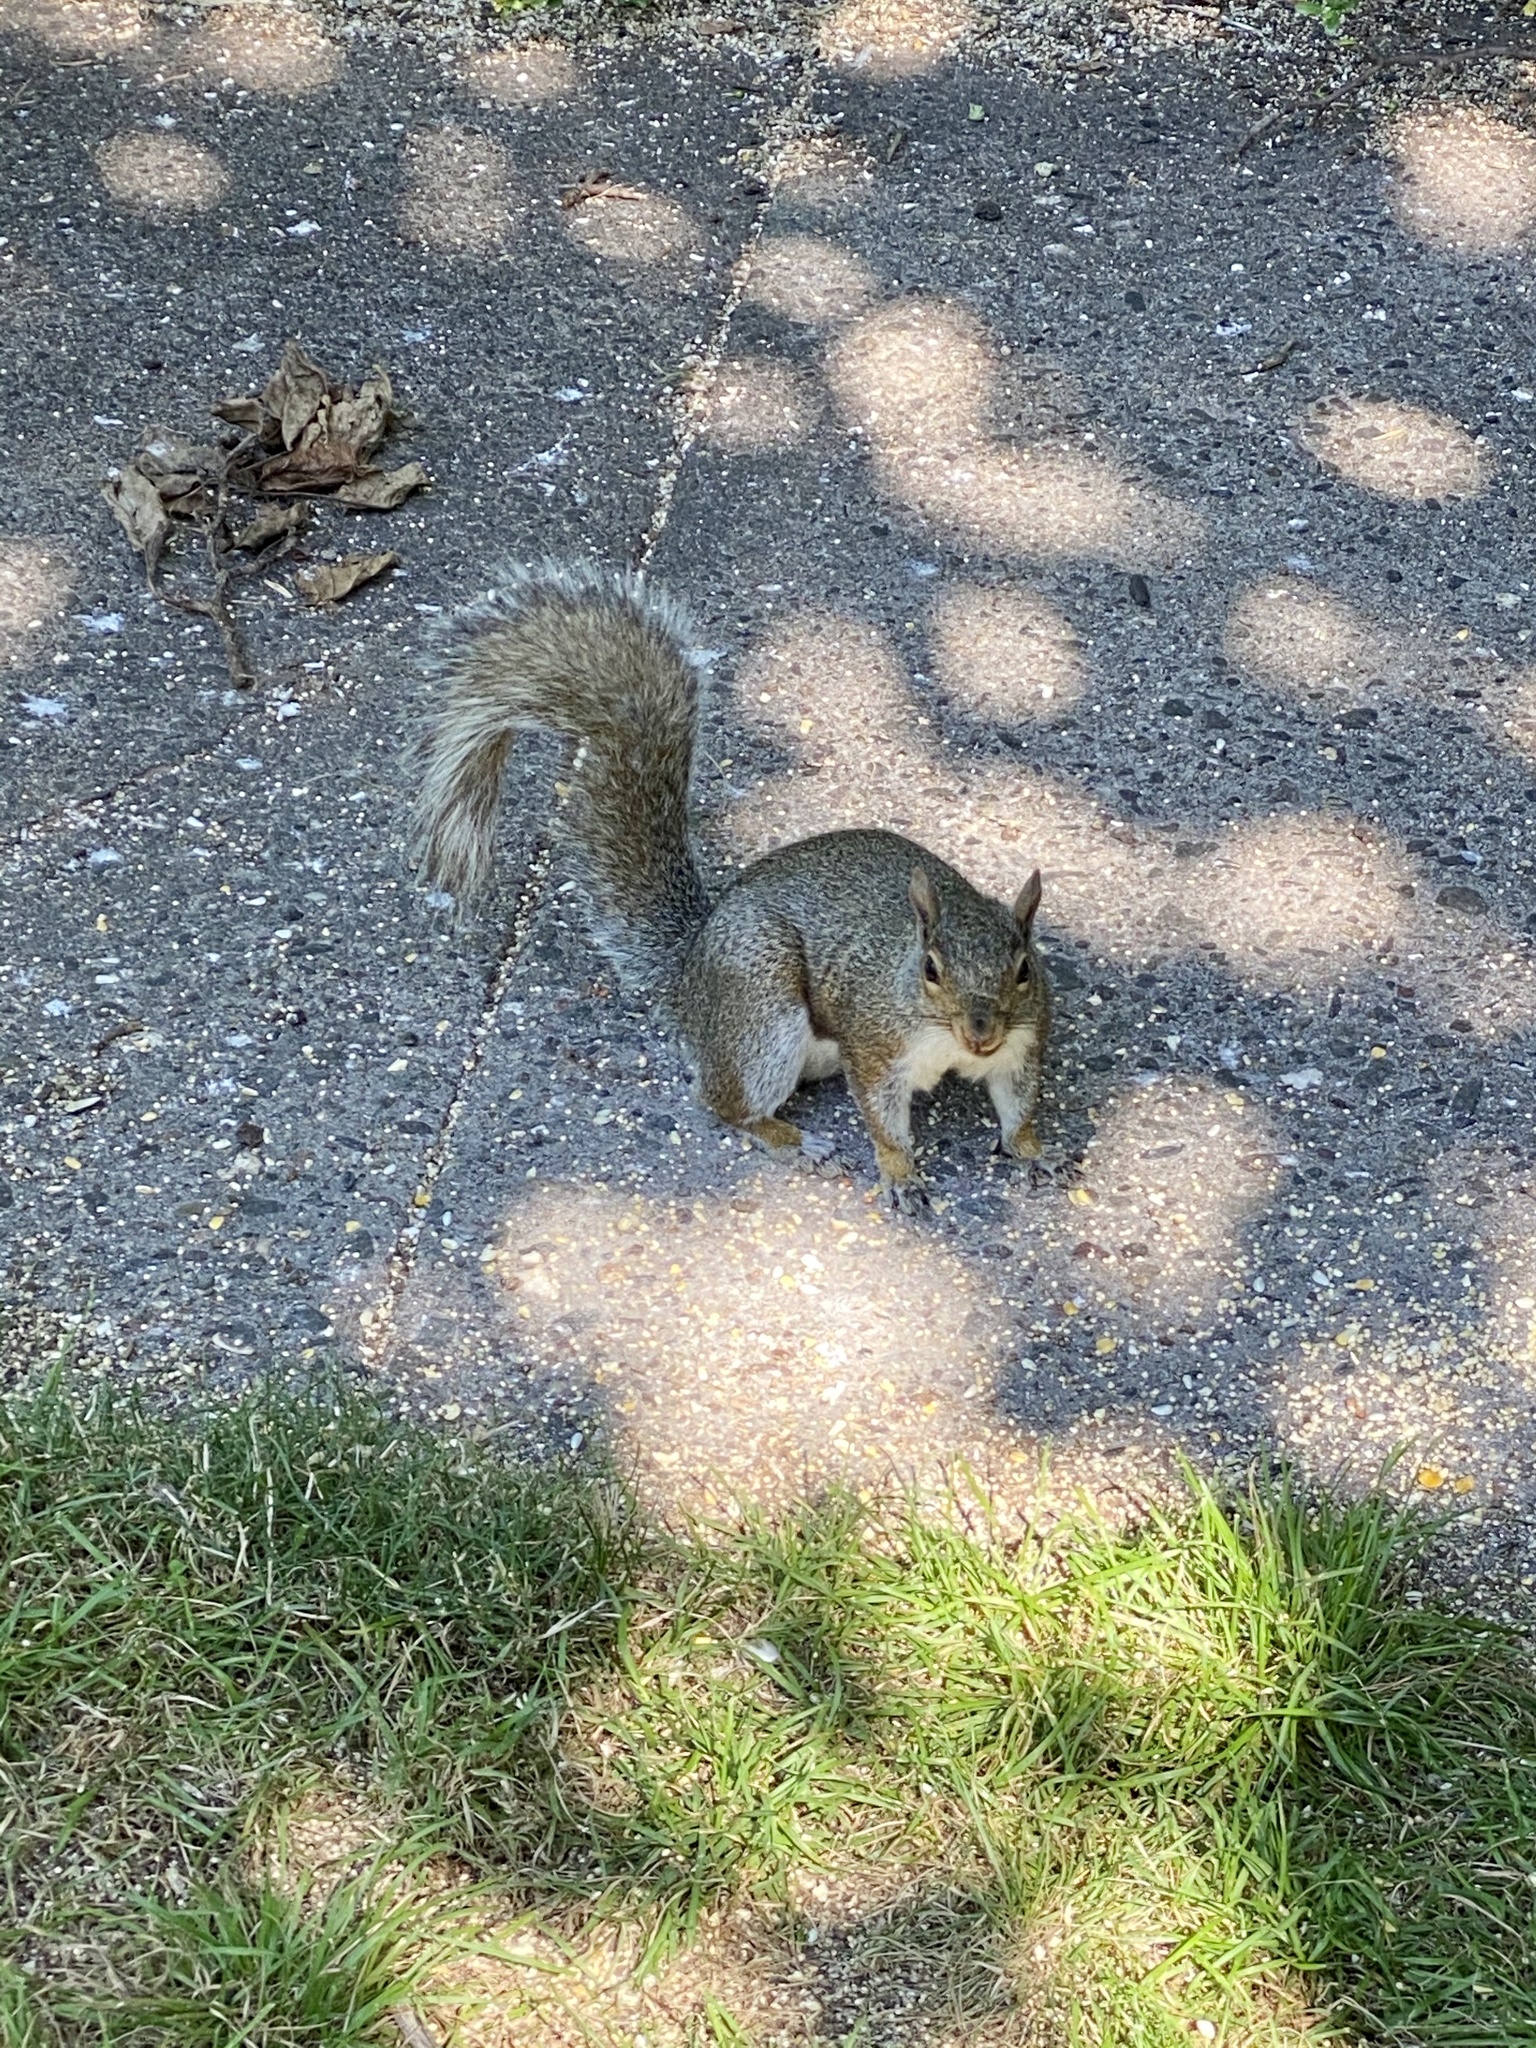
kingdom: Animalia
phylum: Chordata
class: Mammalia
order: Rodentia
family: Sciuridae
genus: Sciurus
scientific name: Sciurus carolinensis
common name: Eastern gray squirrel
